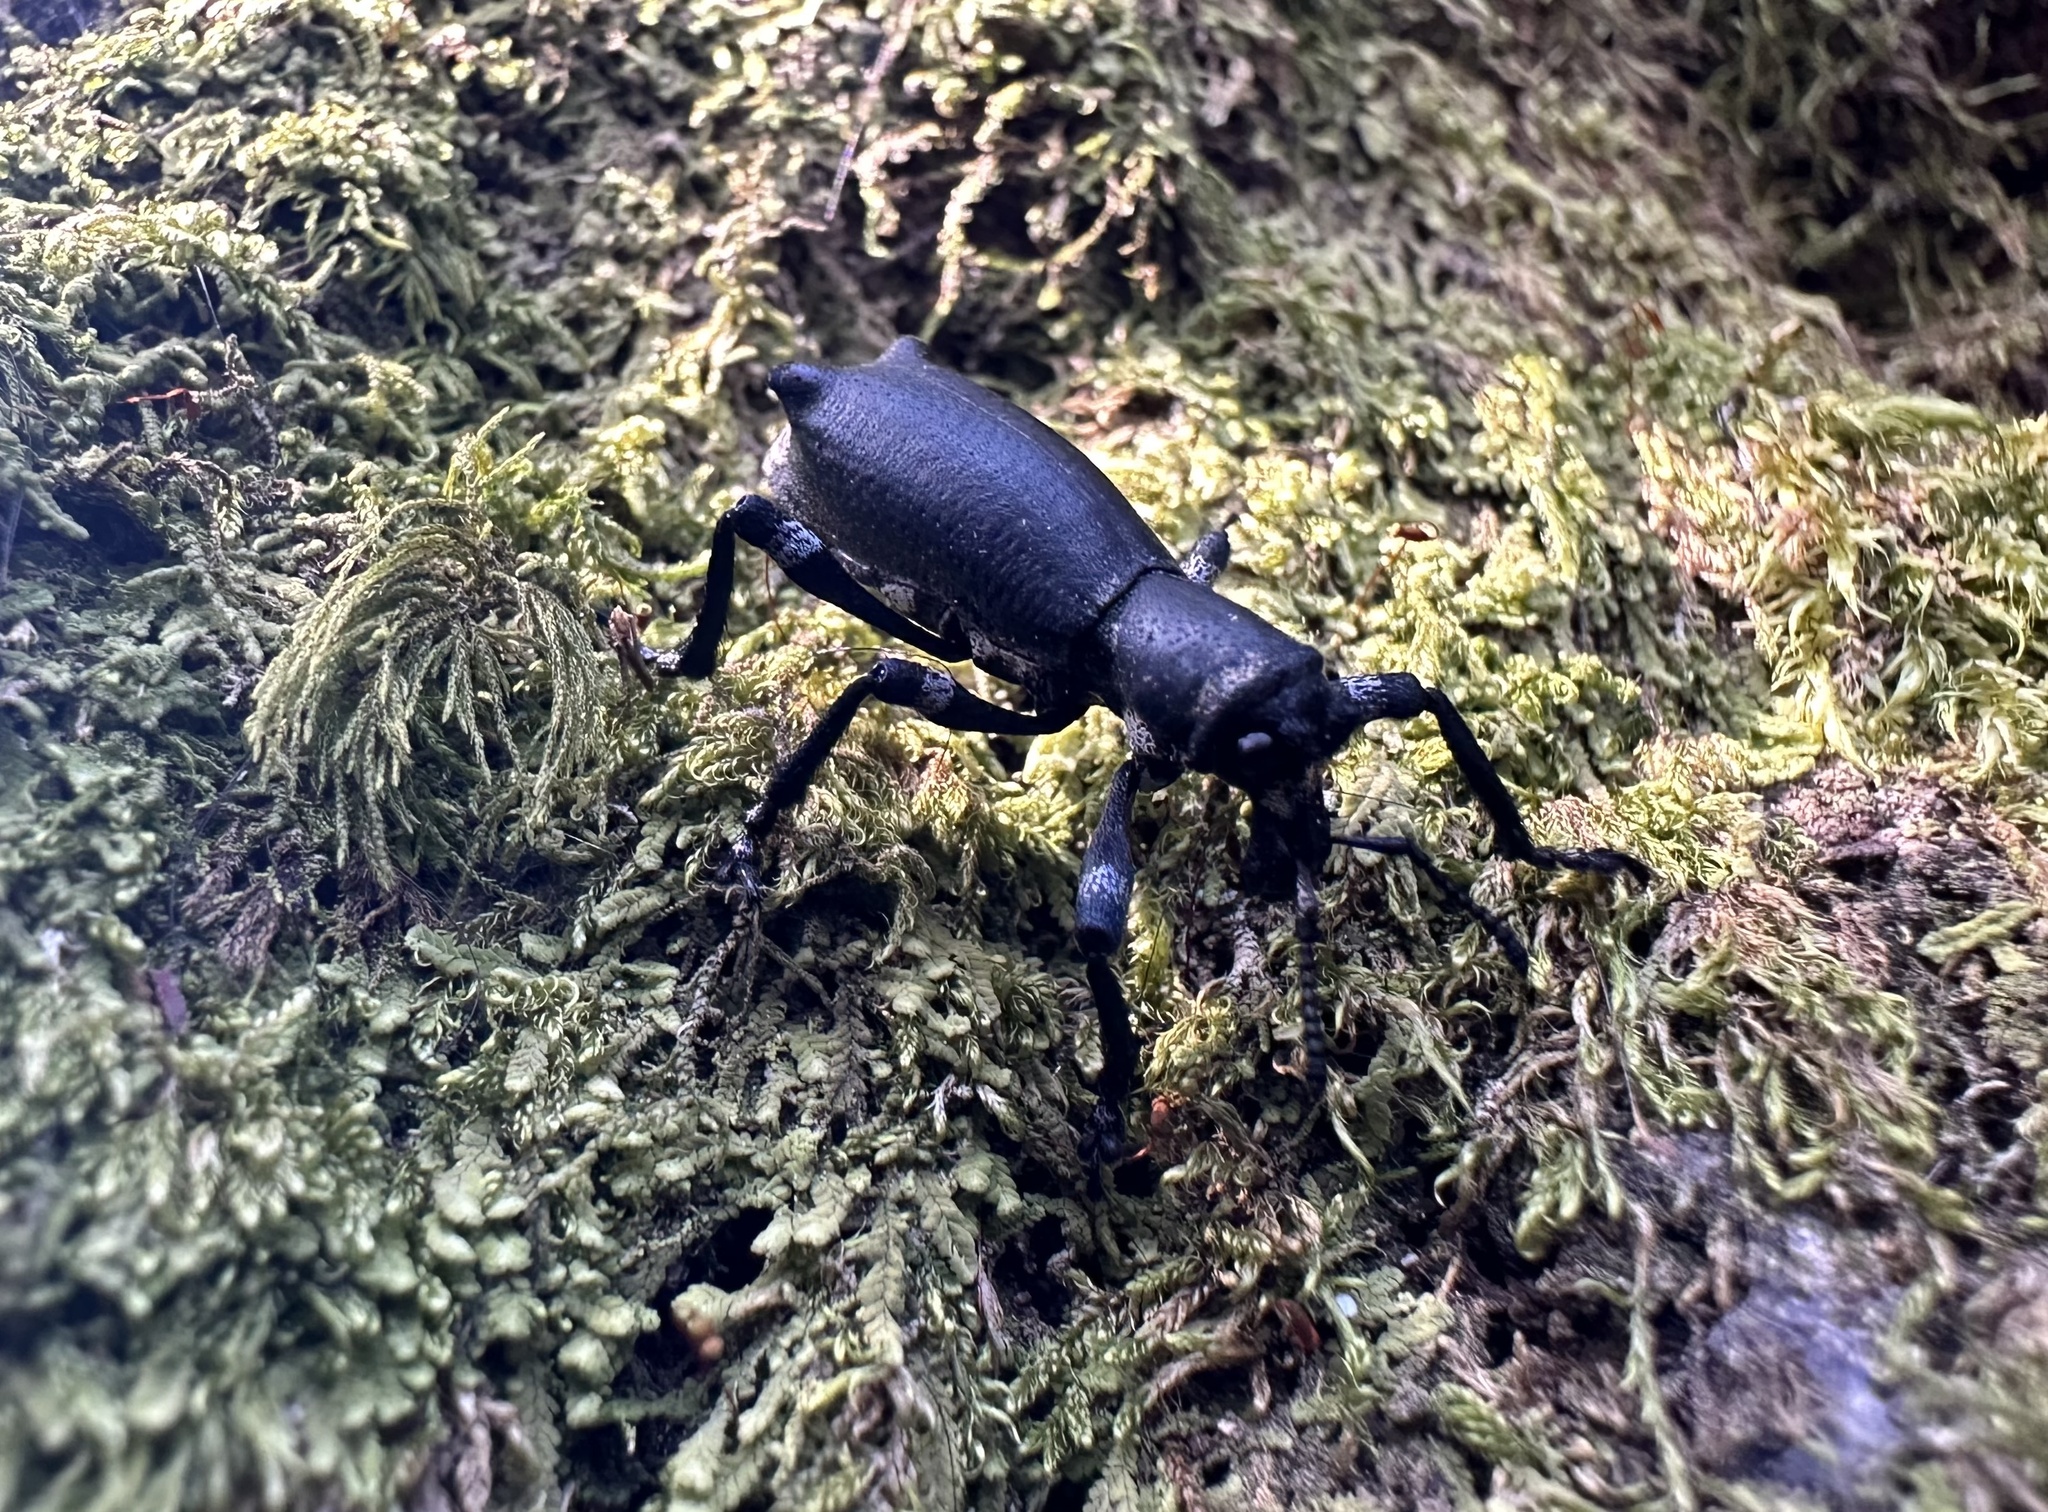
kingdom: Animalia
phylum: Arthropoda
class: Insecta
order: Coleoptera
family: Curculionidae
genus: Aegorhinus
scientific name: Aegorhinus
